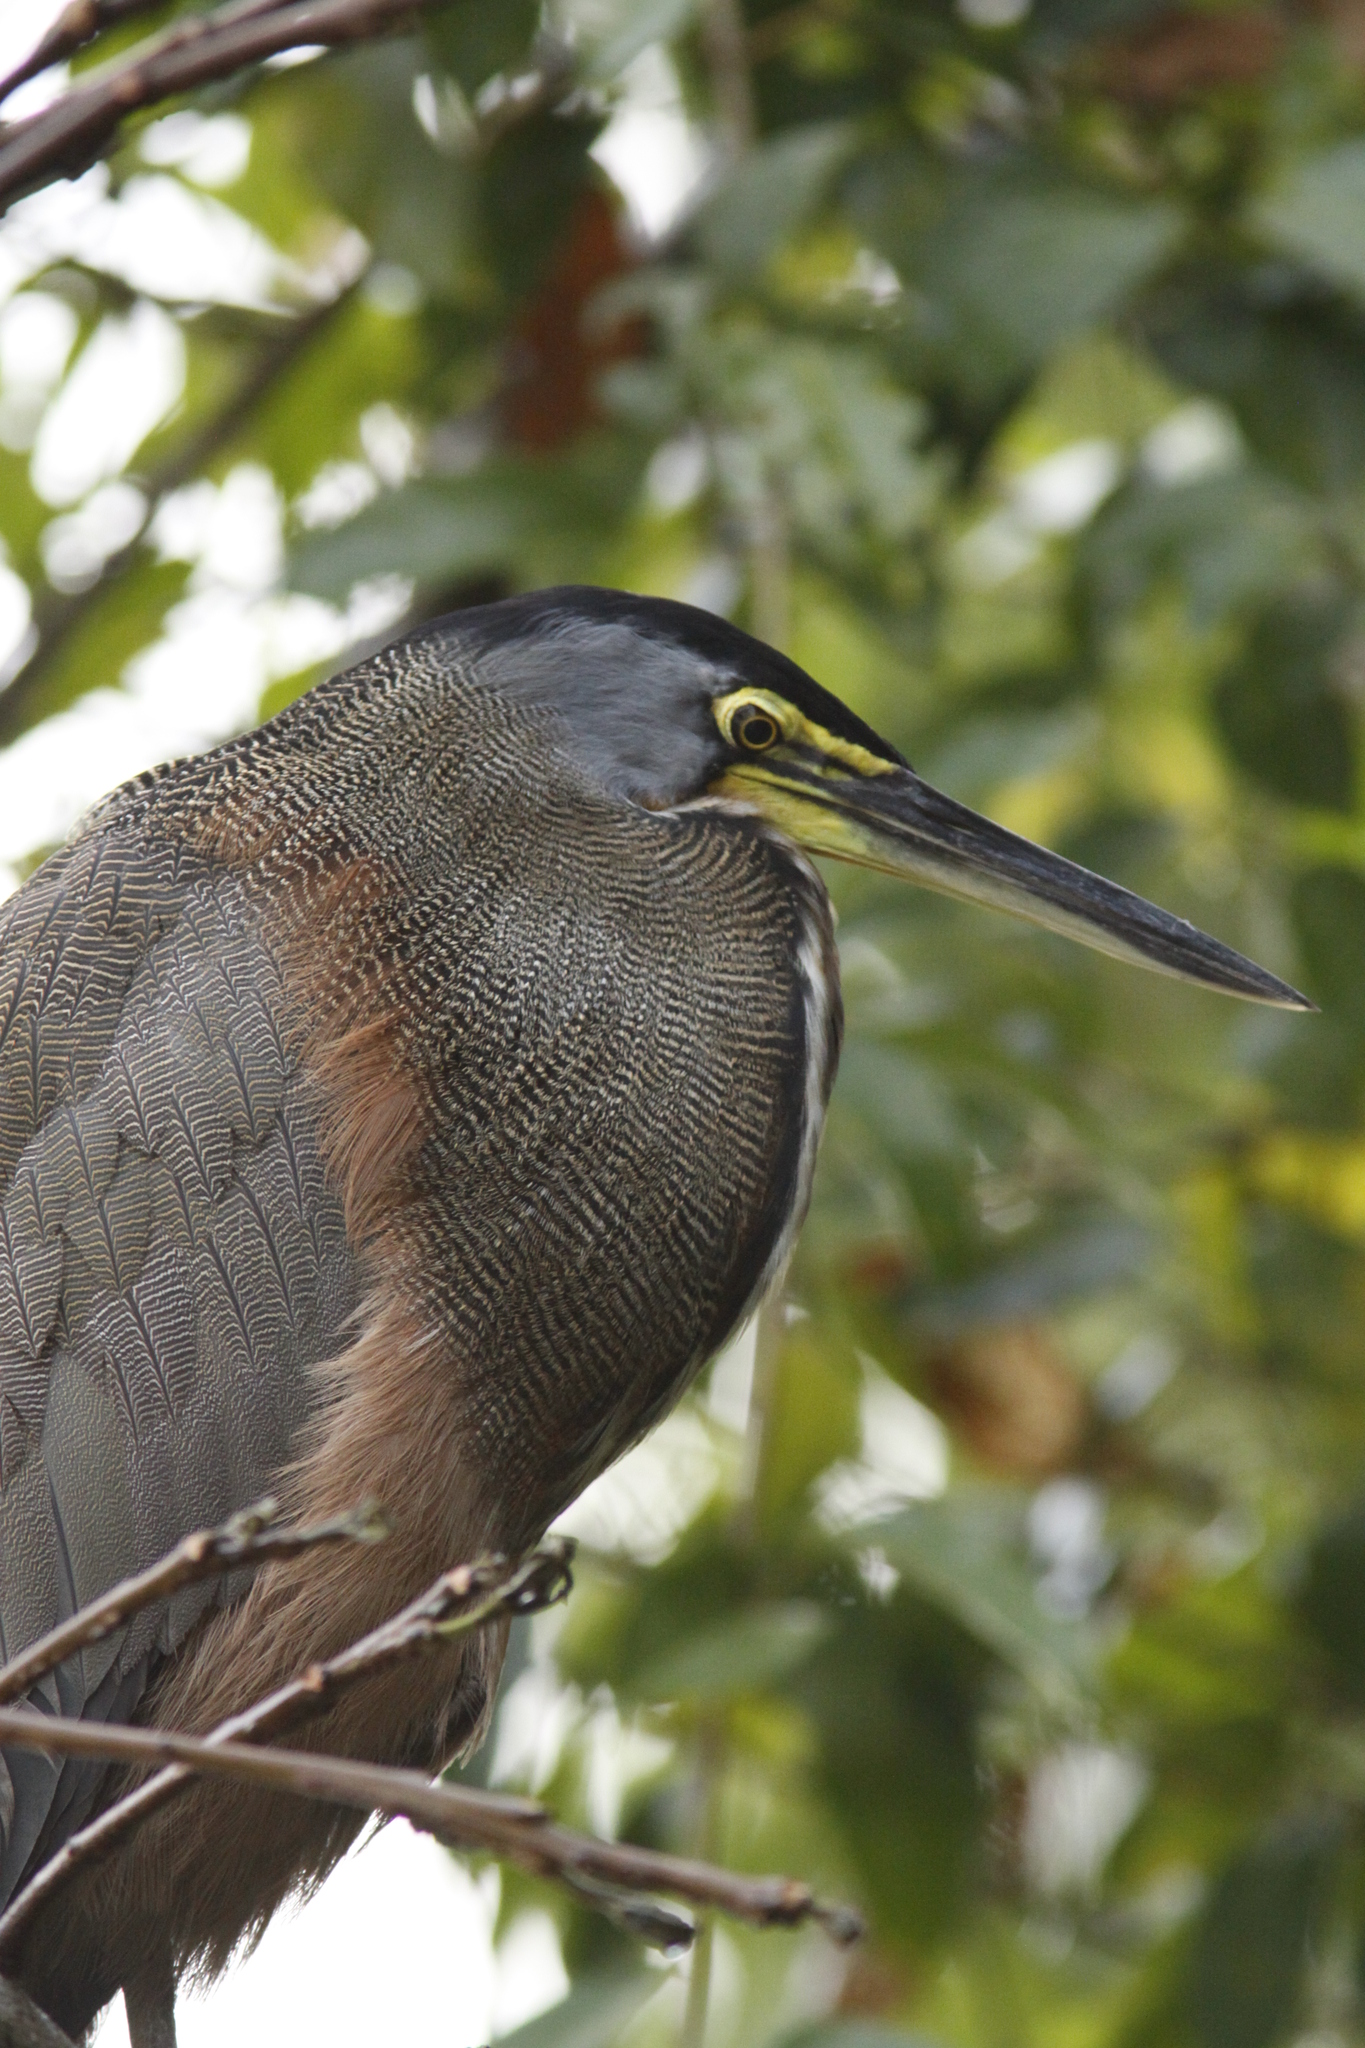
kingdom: Animalia
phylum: Chordata
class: Aves
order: Pelecaniformes
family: Ardeidae
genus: Tigrisoma
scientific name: Tigrisoma mexicanum
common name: Bare-throated tiger-heron
